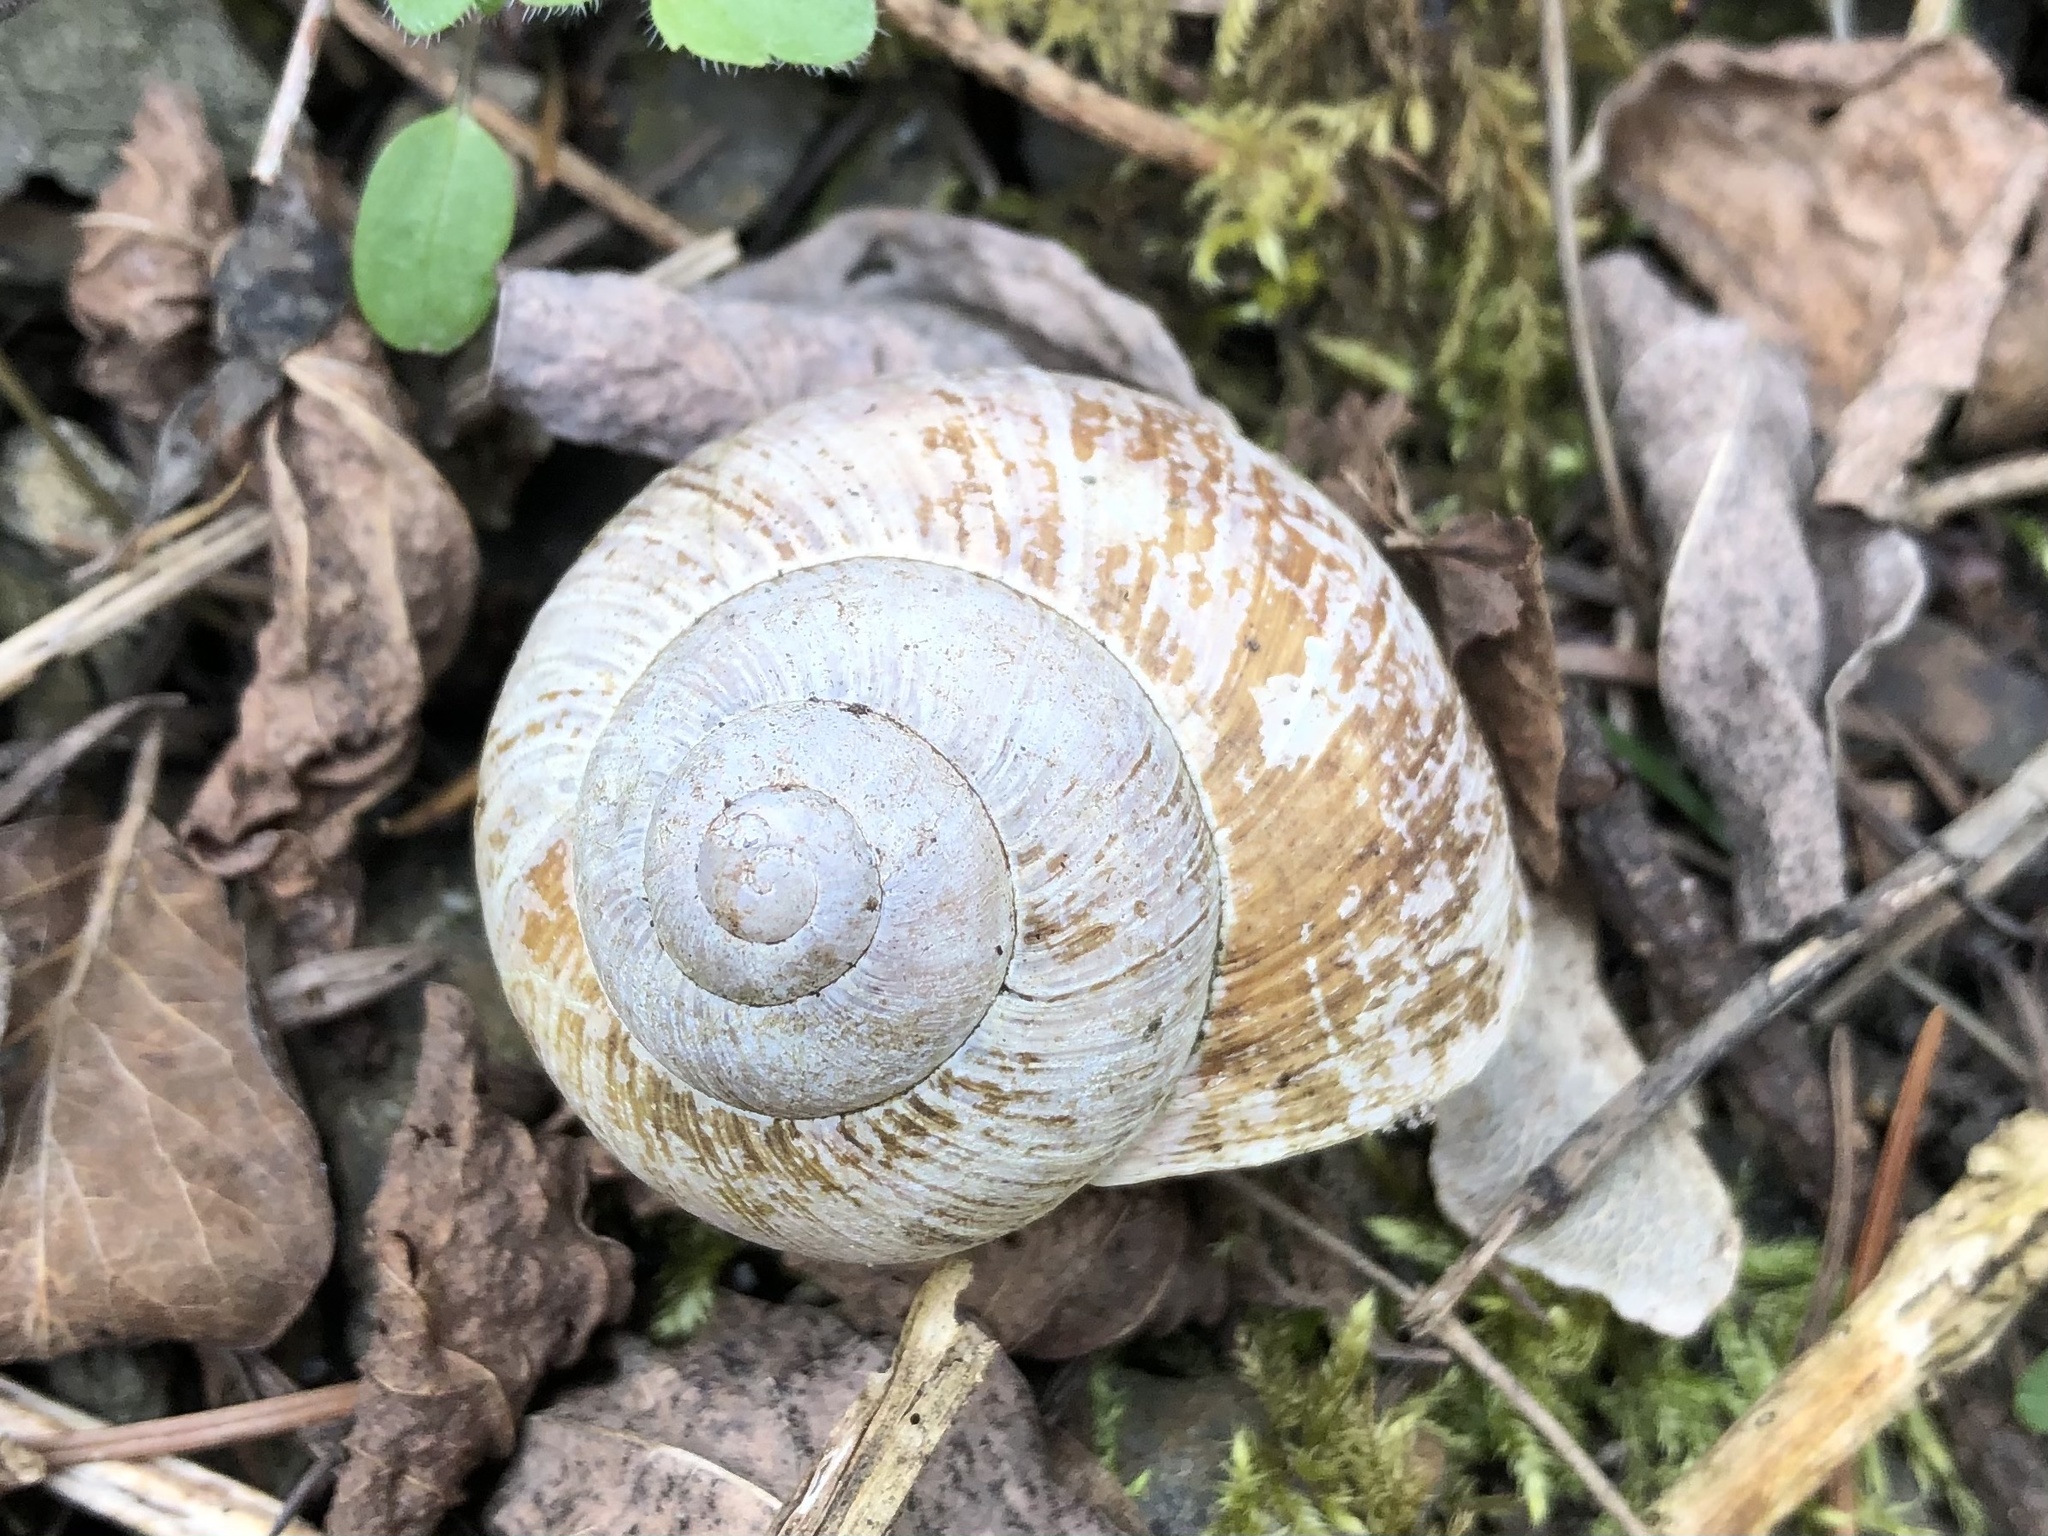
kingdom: Animalia
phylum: Mollusca
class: Gastropoda
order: Stylommatophora
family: Helicidae
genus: Helix
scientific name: Helix pomatia
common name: Roman snail
